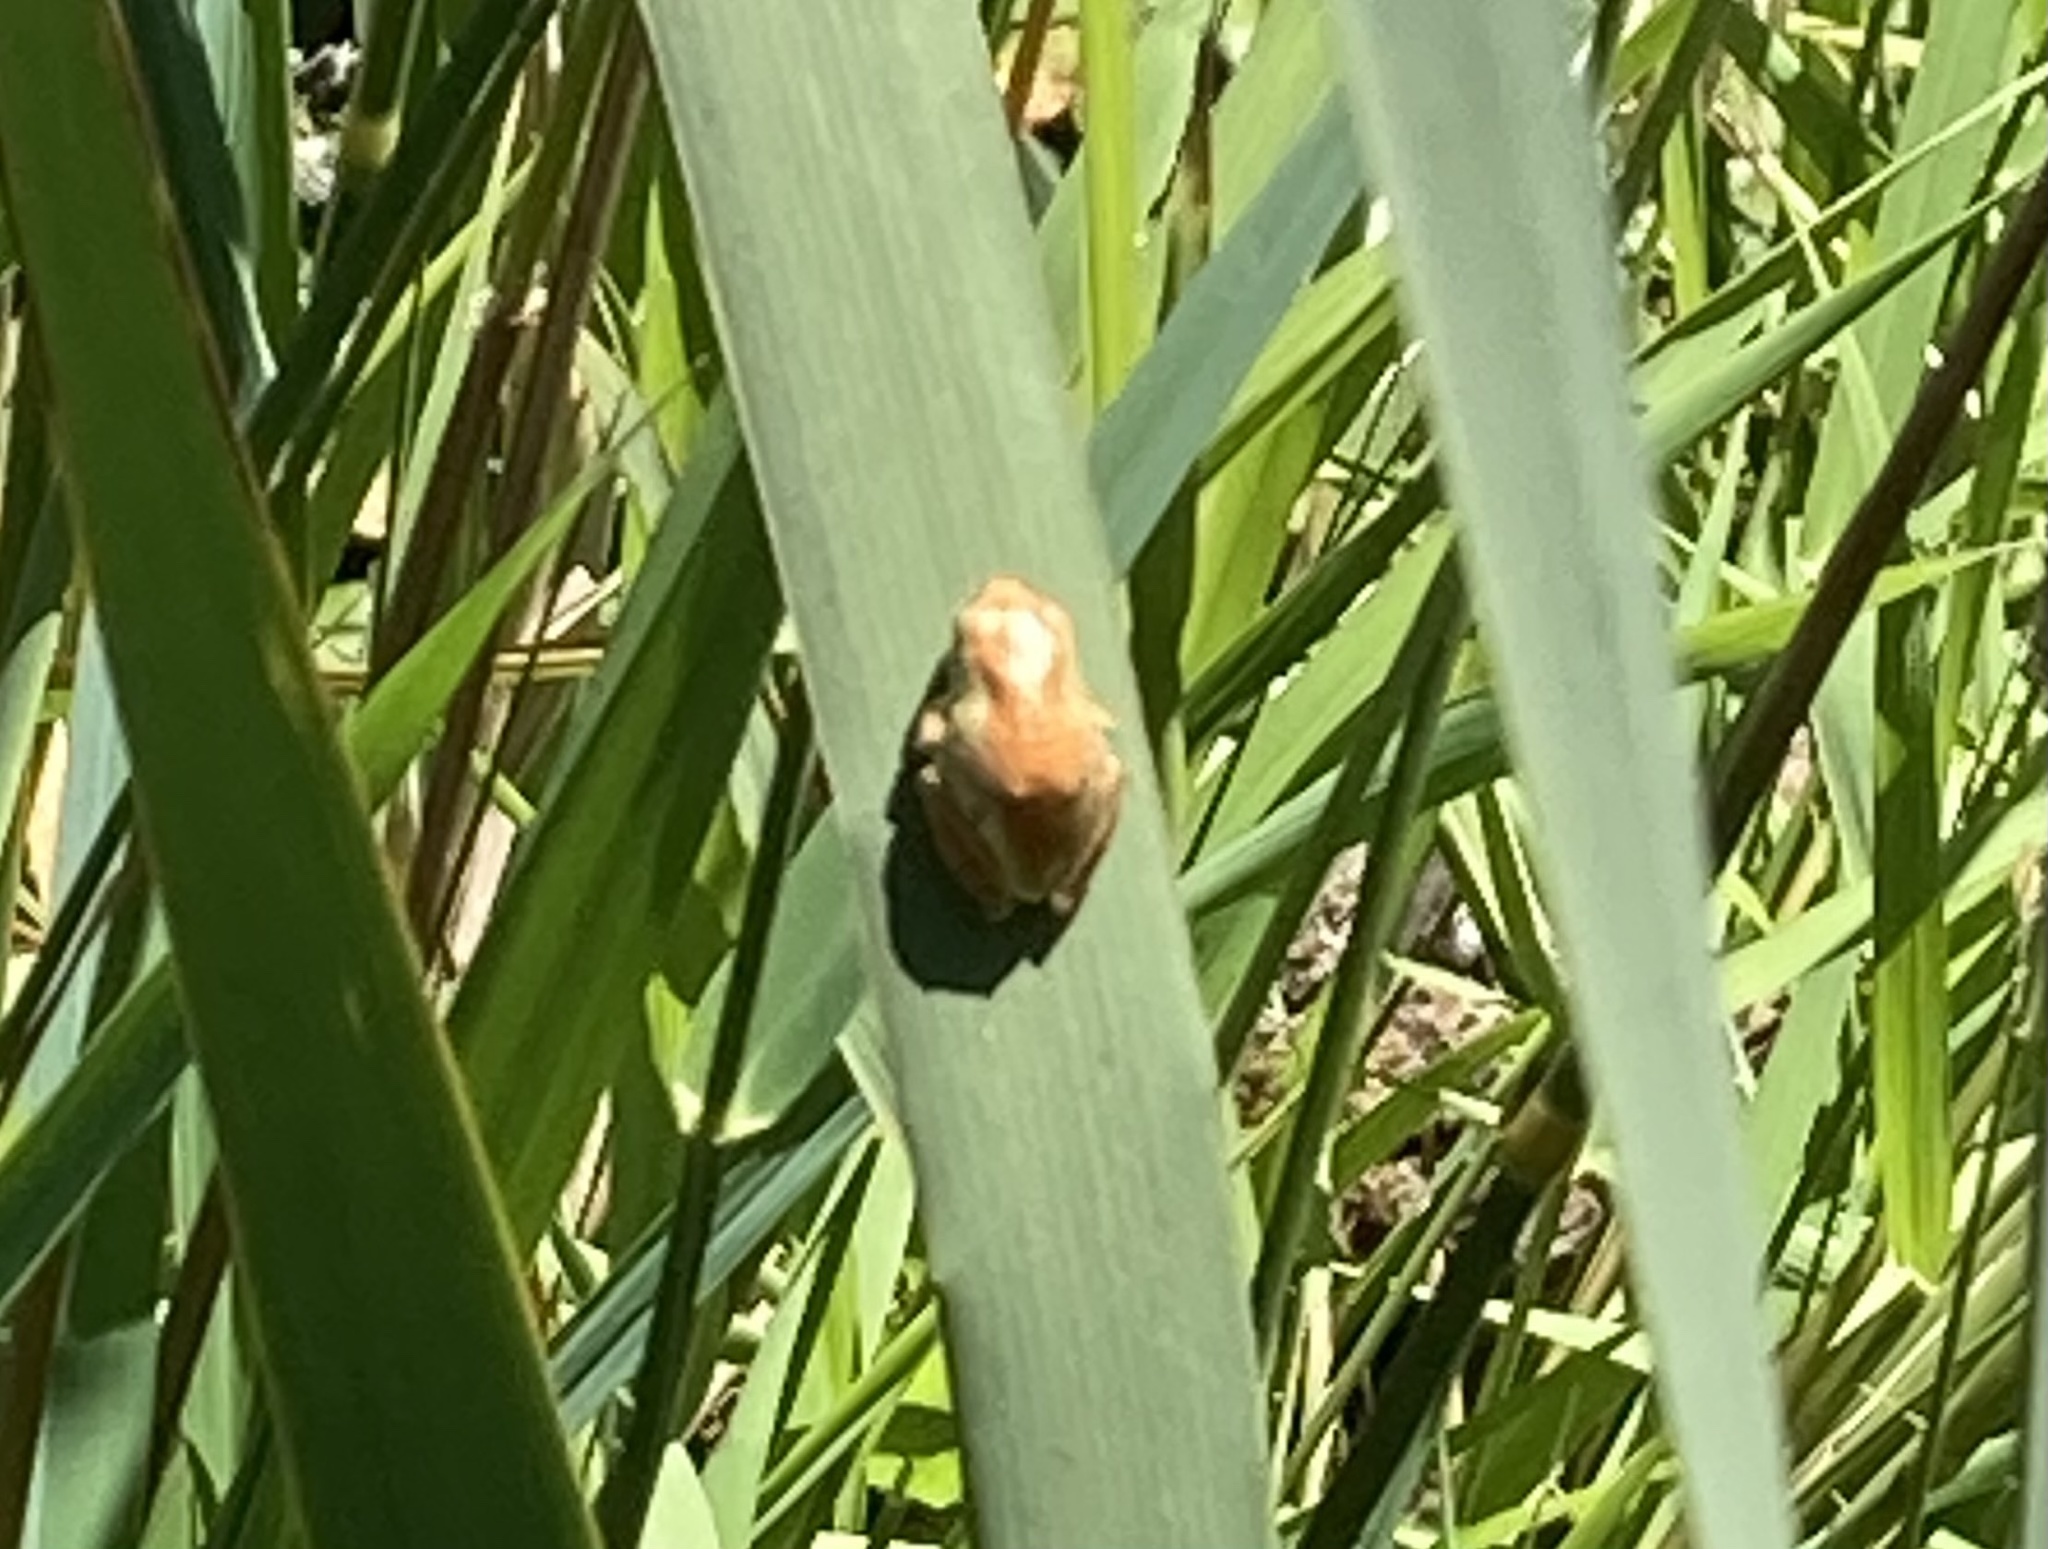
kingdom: Animalia
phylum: Chordata
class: Amphibia
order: Anura
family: Hylidae
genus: Pseudacris
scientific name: Pseudacris regilla
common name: Pacific chorus frog
